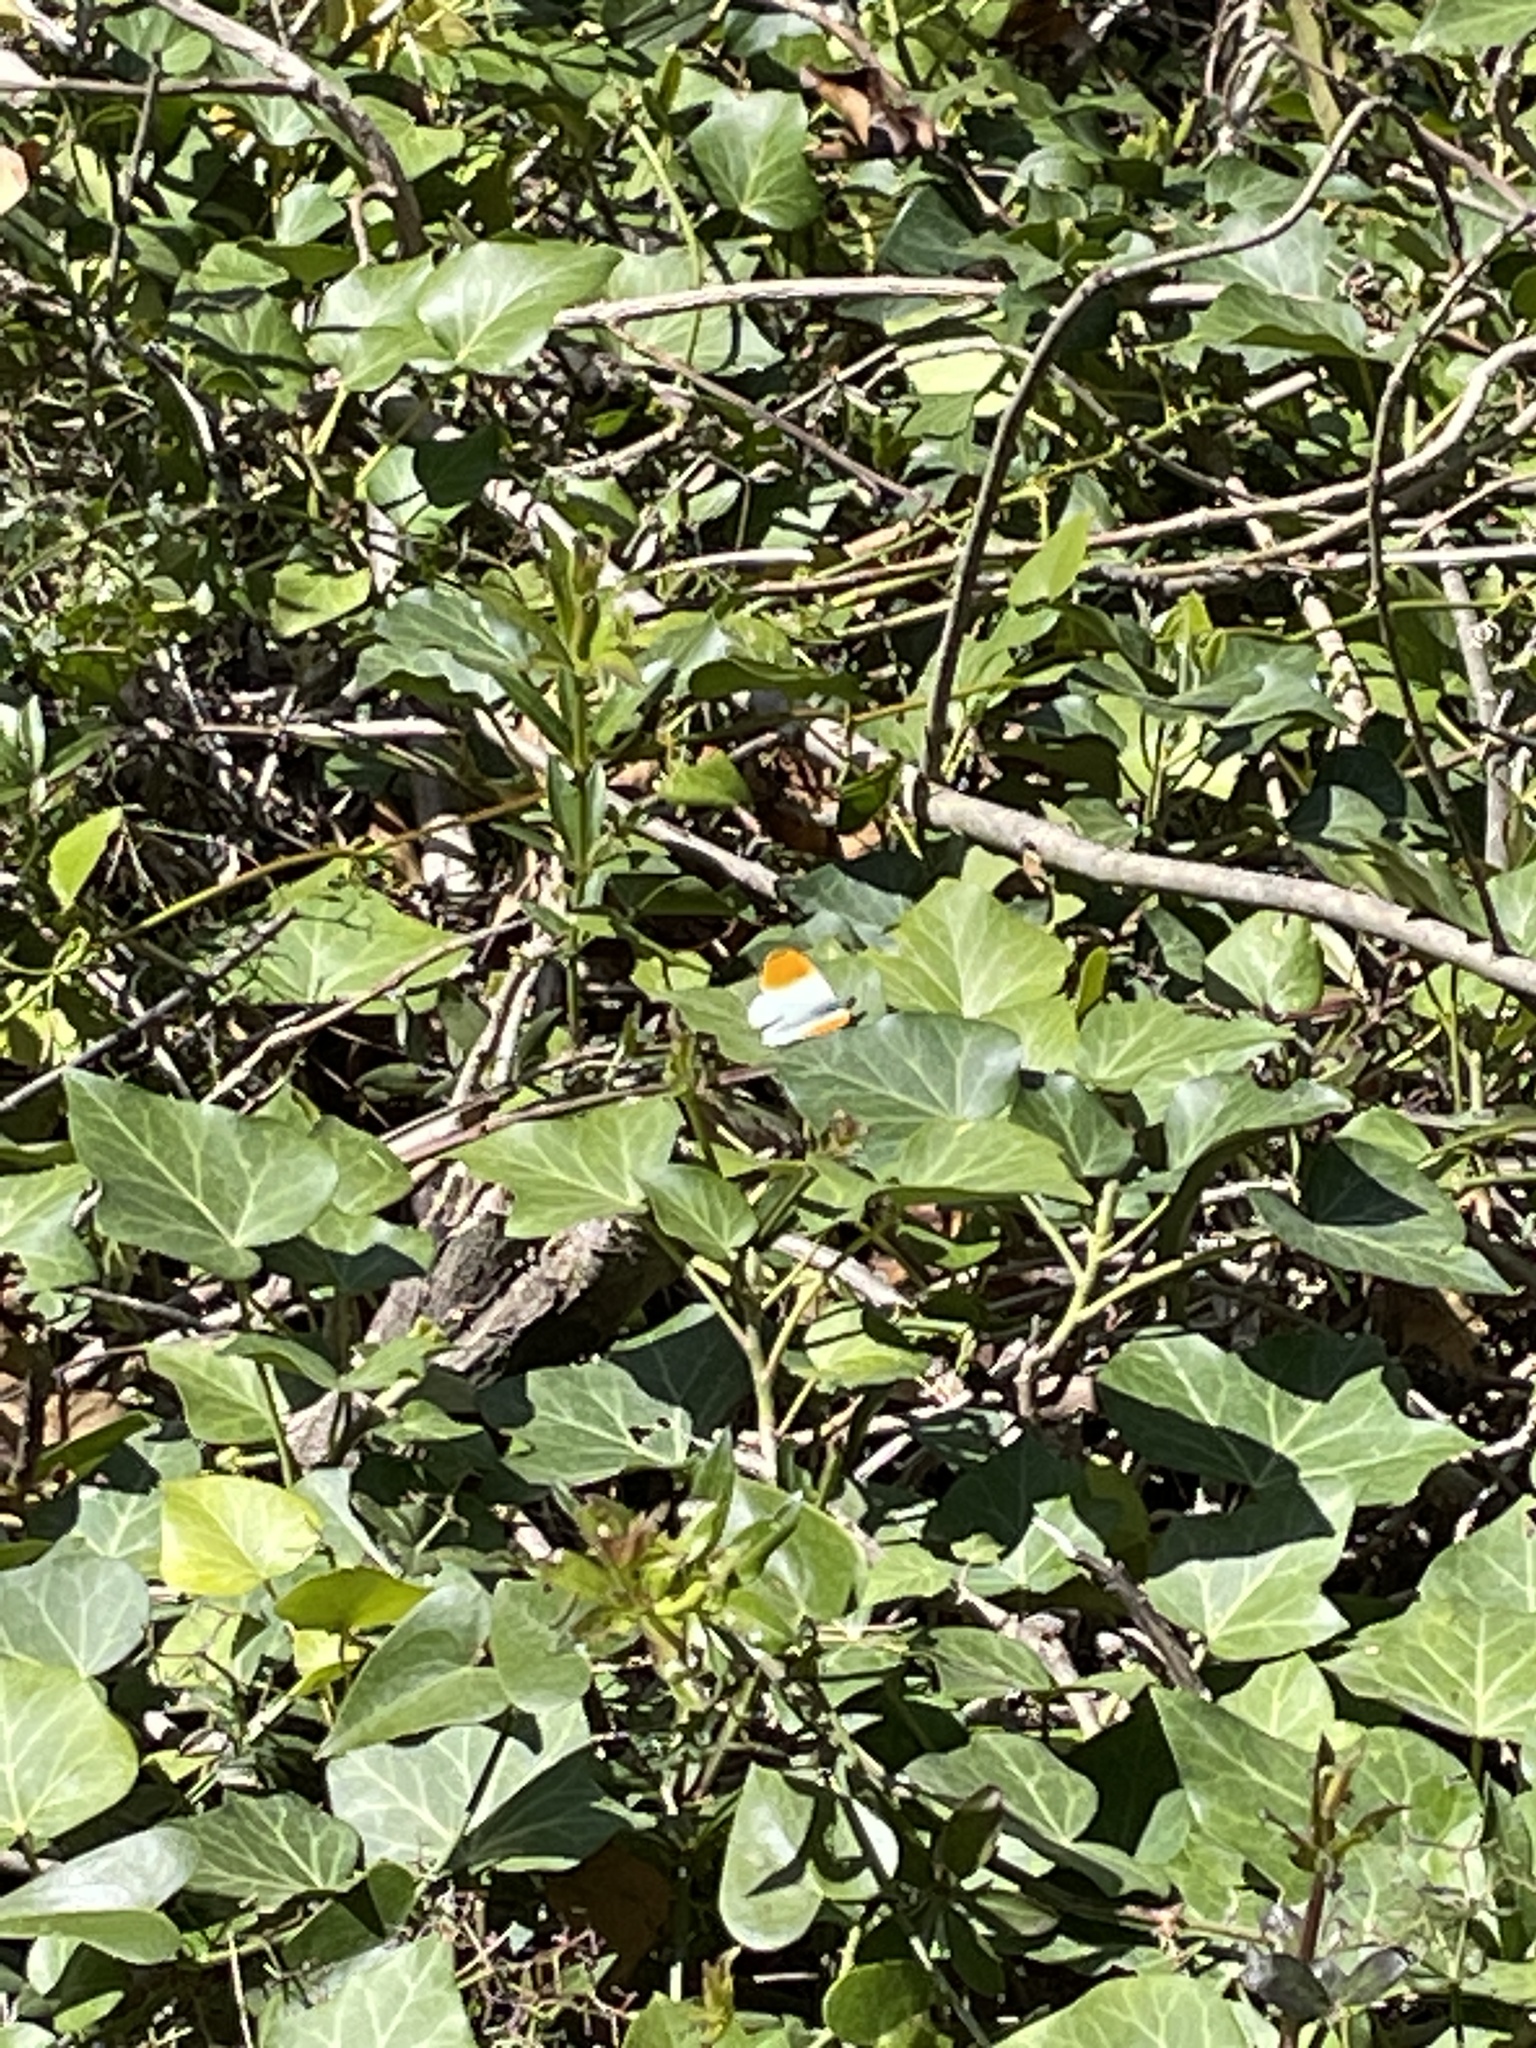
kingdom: Animalia
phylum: Arthropoda
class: Insecta
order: Lepidoptera
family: Pieridae
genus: Anthocharis
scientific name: Anthocharis cardamines
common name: Orange-tip
